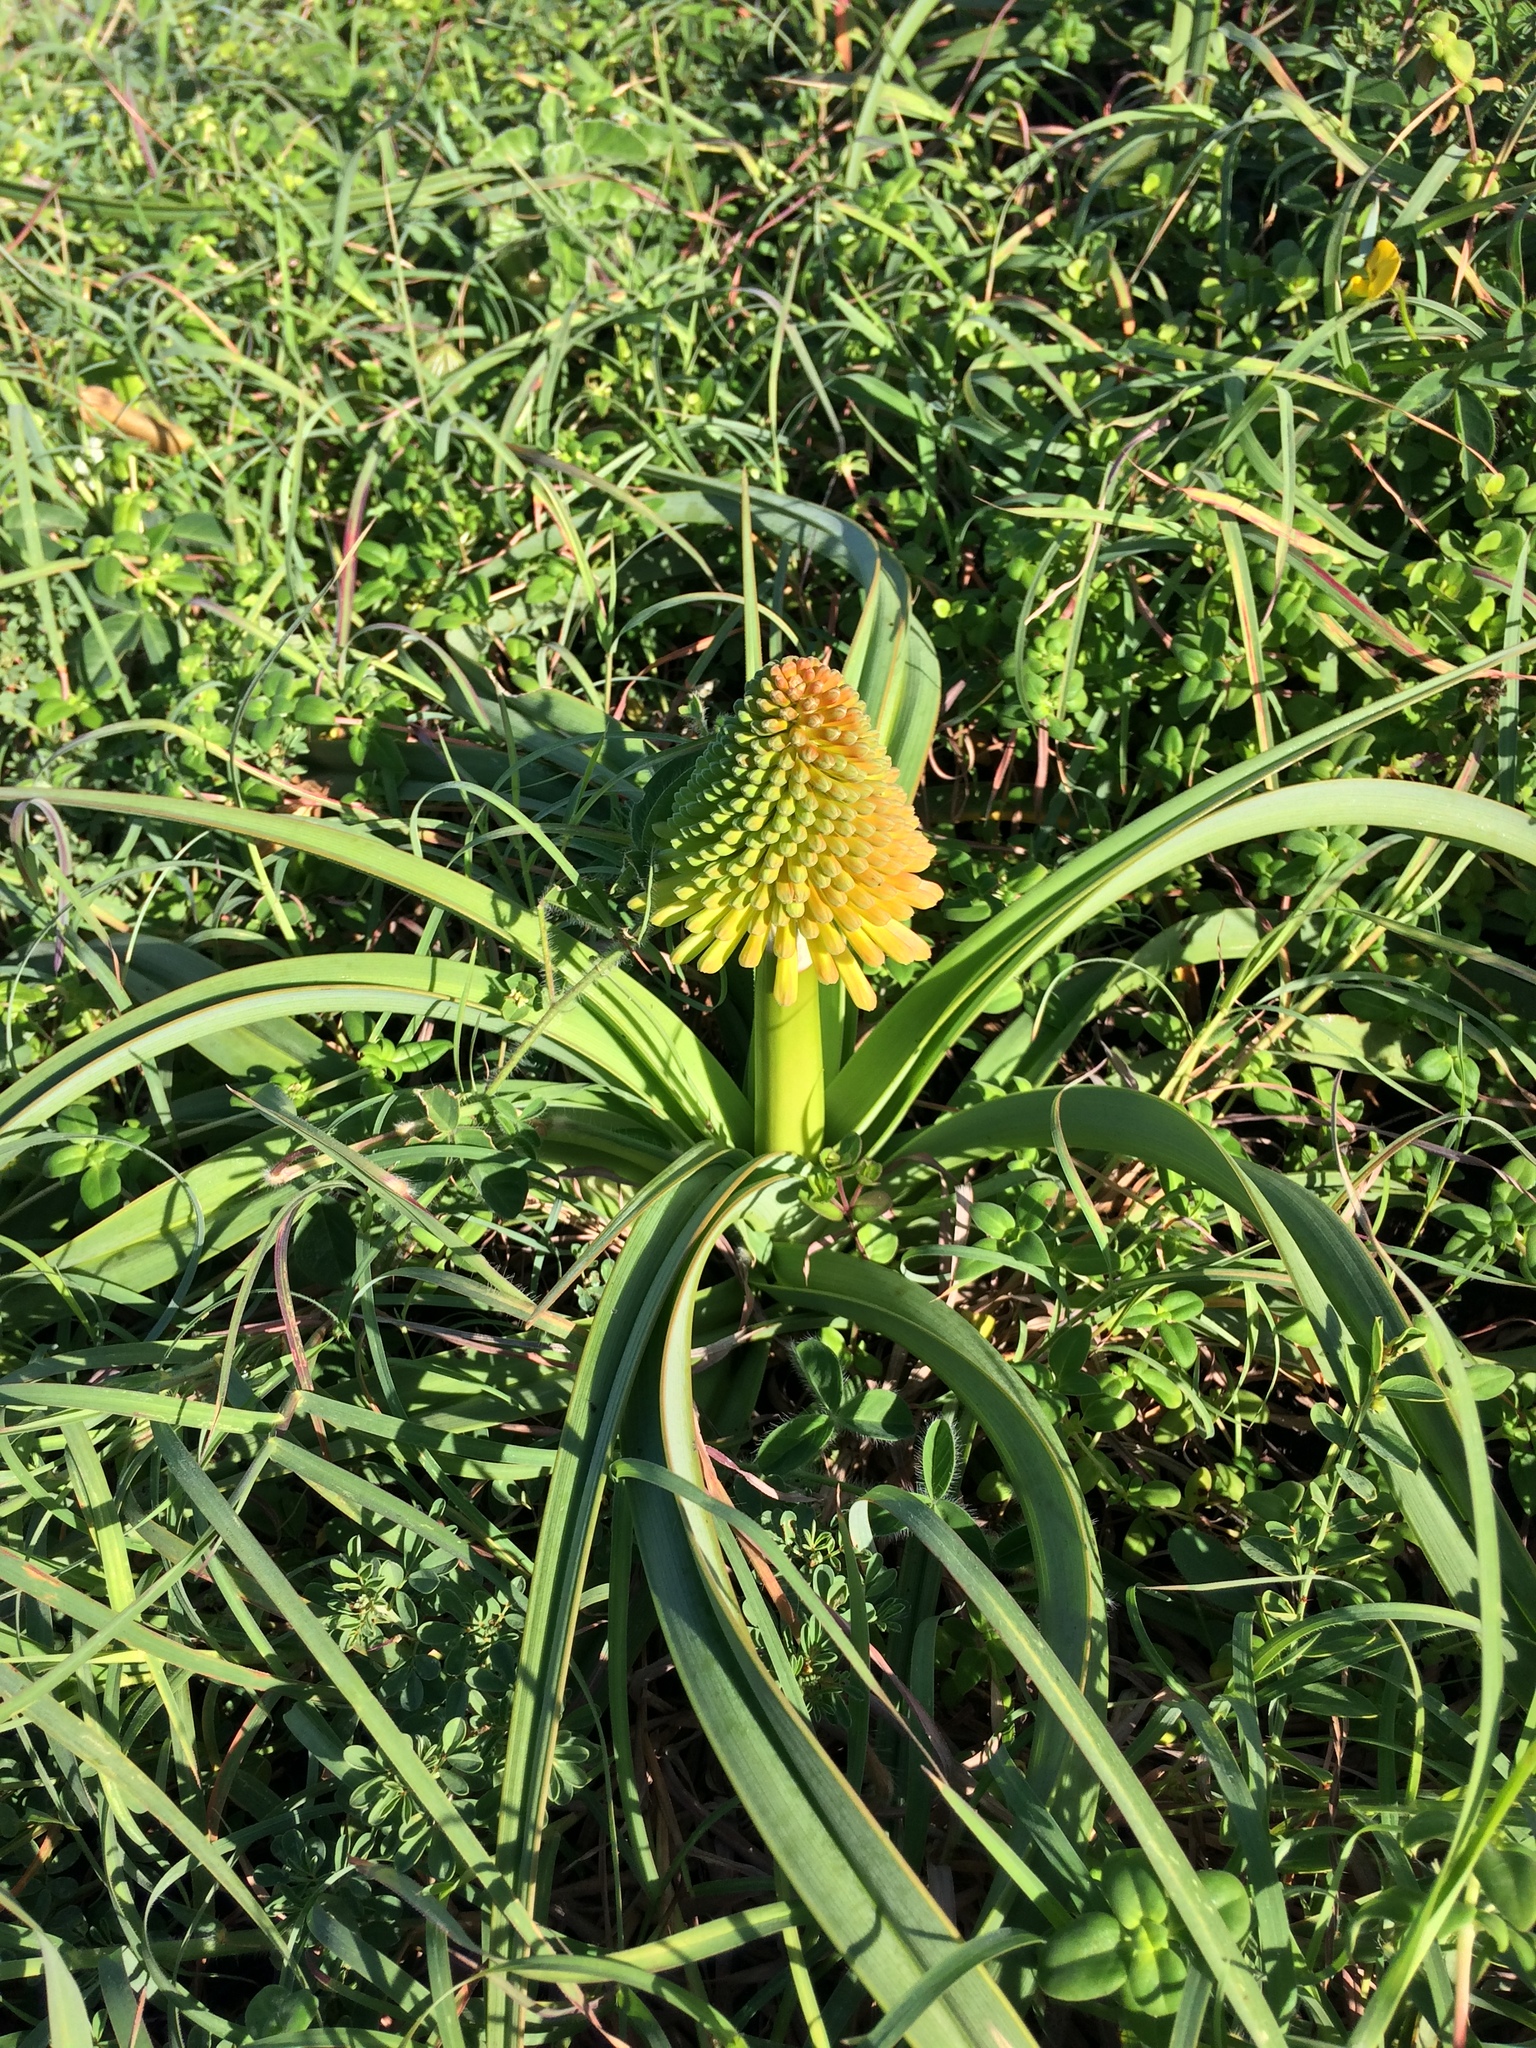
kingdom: Plantae
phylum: Tracheophyta
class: Liliopsida
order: Asparagales
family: Asphodelaceae
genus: Kniphofia
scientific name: Kniphofia rooperi
